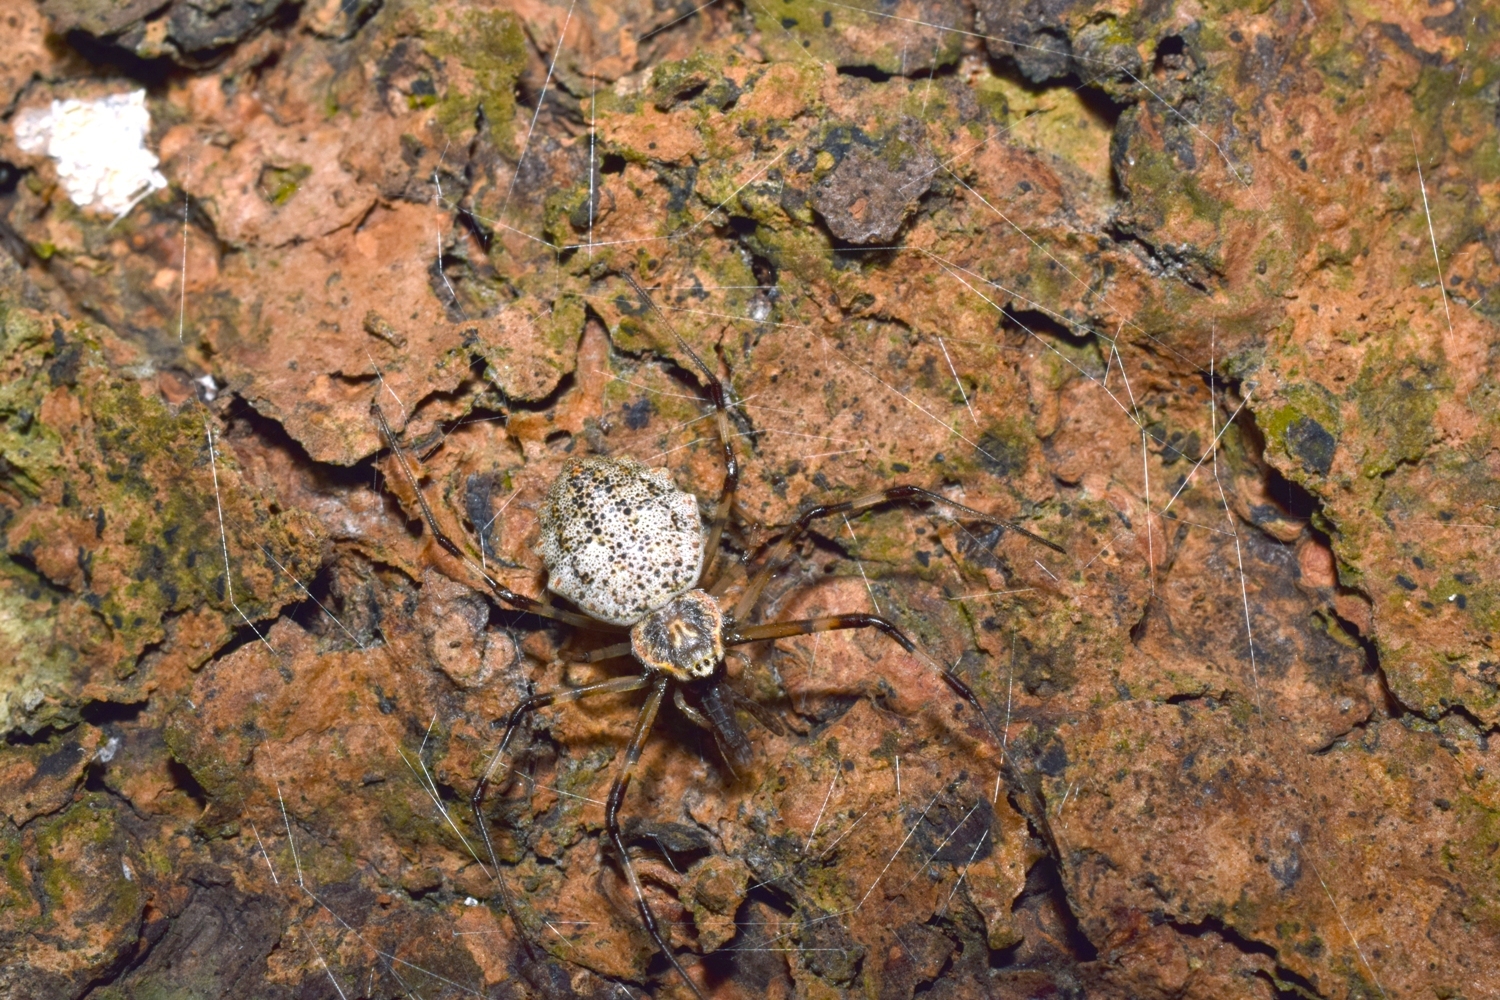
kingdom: Animalia
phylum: Arthropoda
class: Arachnida
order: Araneae
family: Araneidae
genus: Herennia
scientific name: Herennia multipuncta
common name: Spotted coin spider
